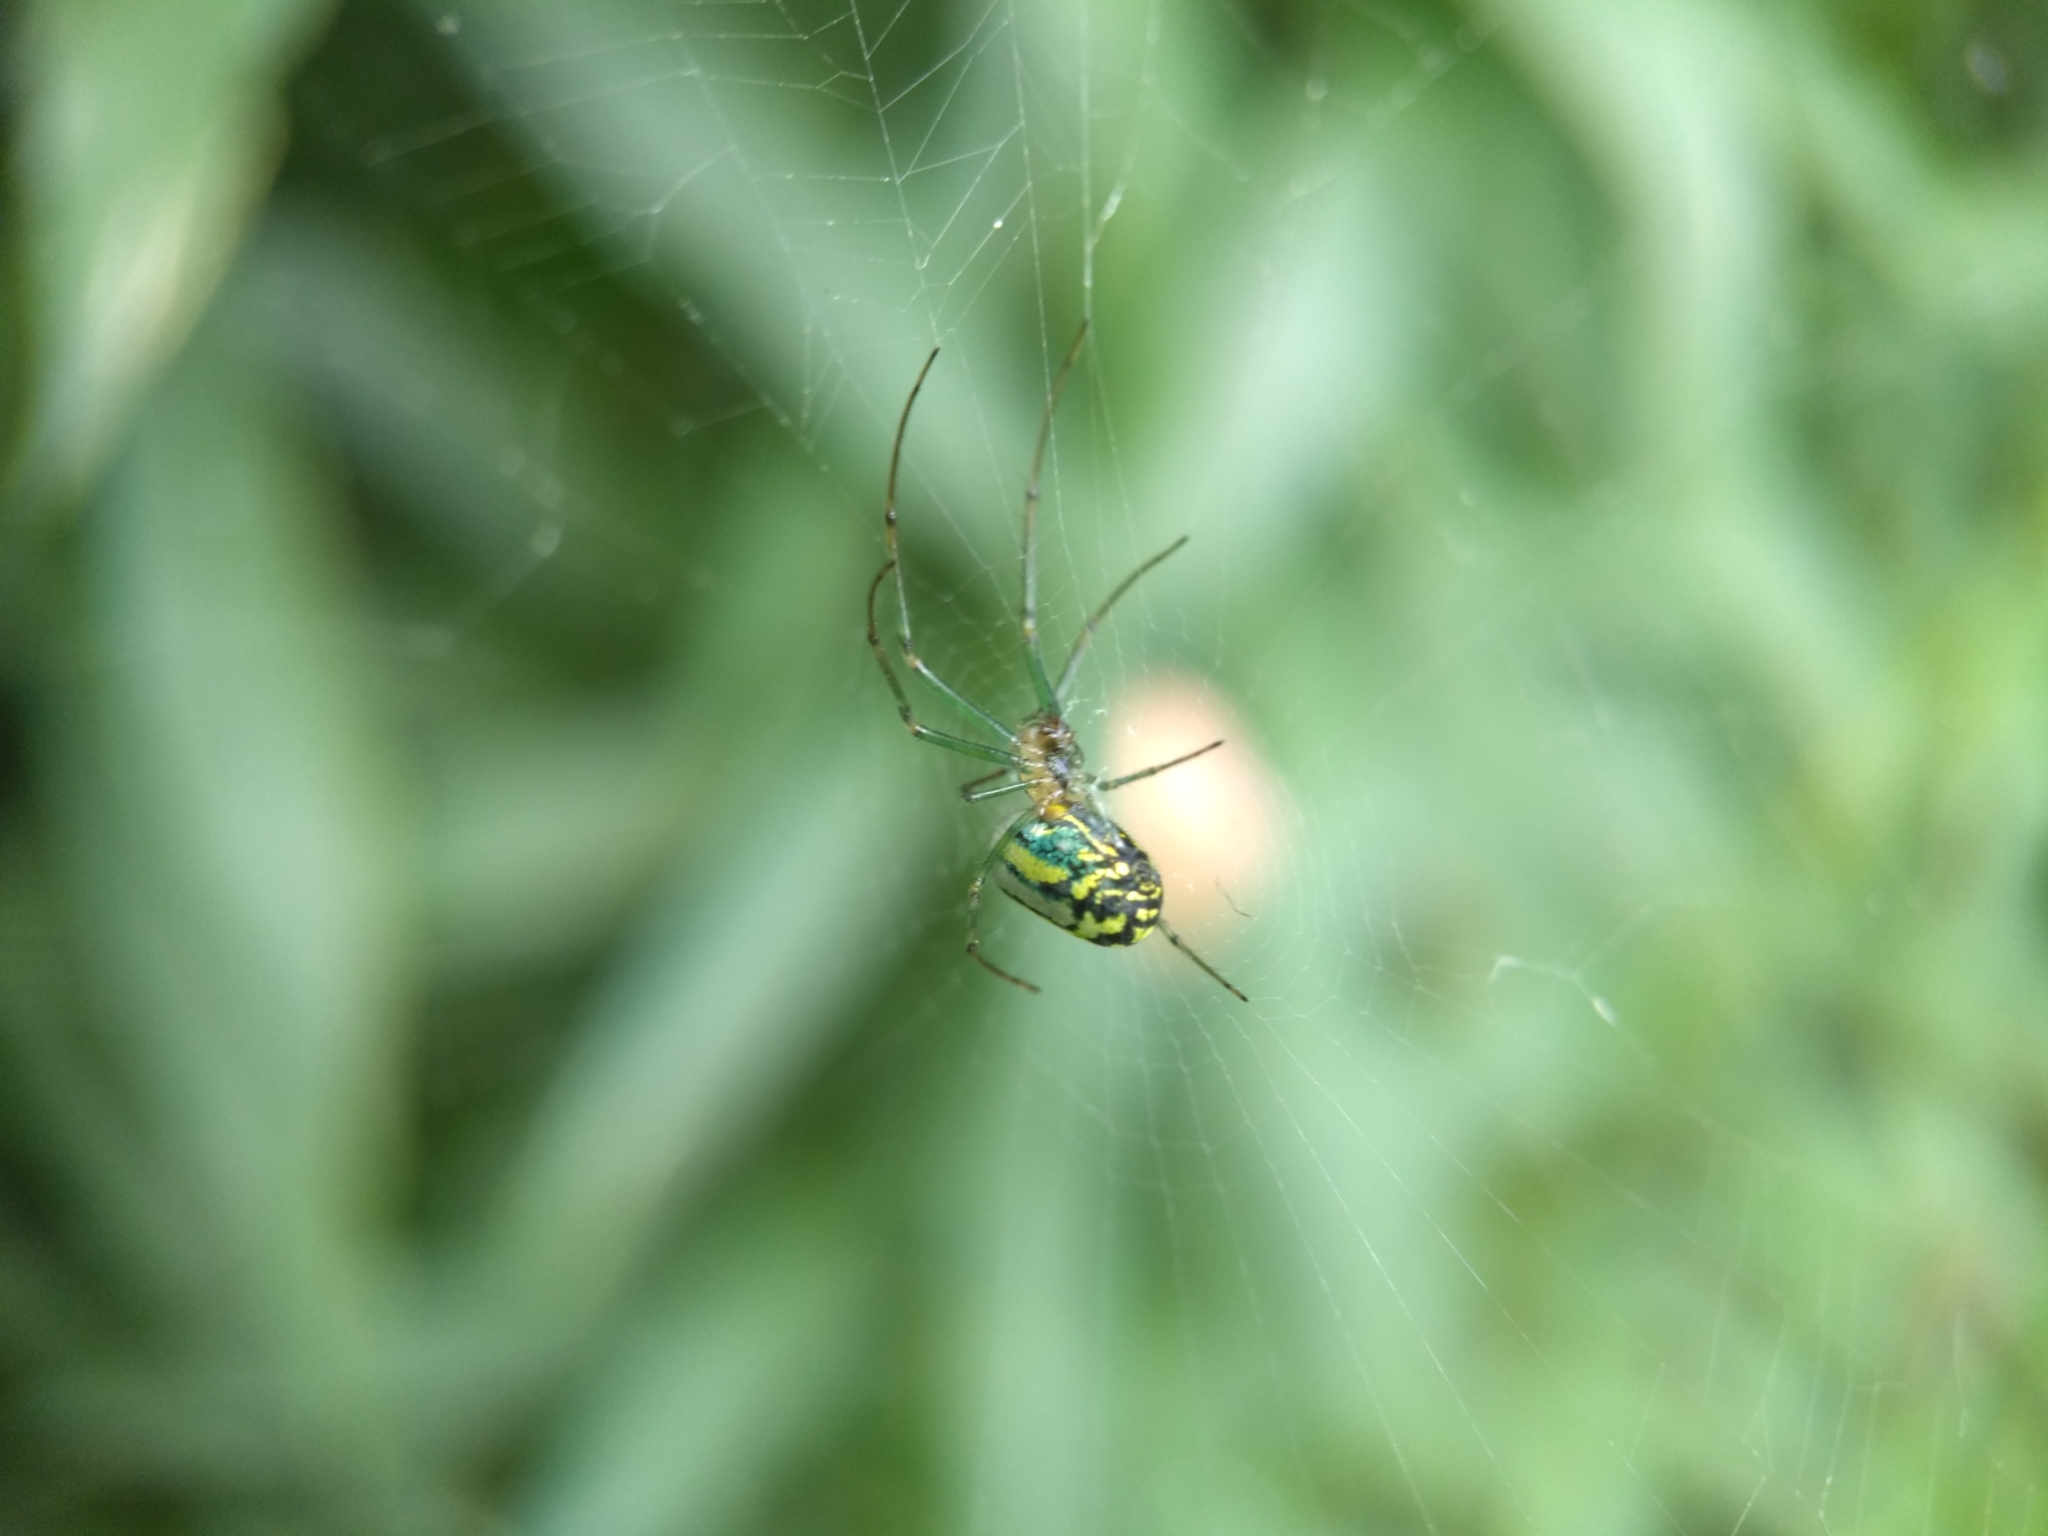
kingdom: Animalia
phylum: Arthropoda
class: Arachnida
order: Araneae
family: Tetragnathidae
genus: Leucauge
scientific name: Leucauge venusta
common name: Longjawed orb weavers
